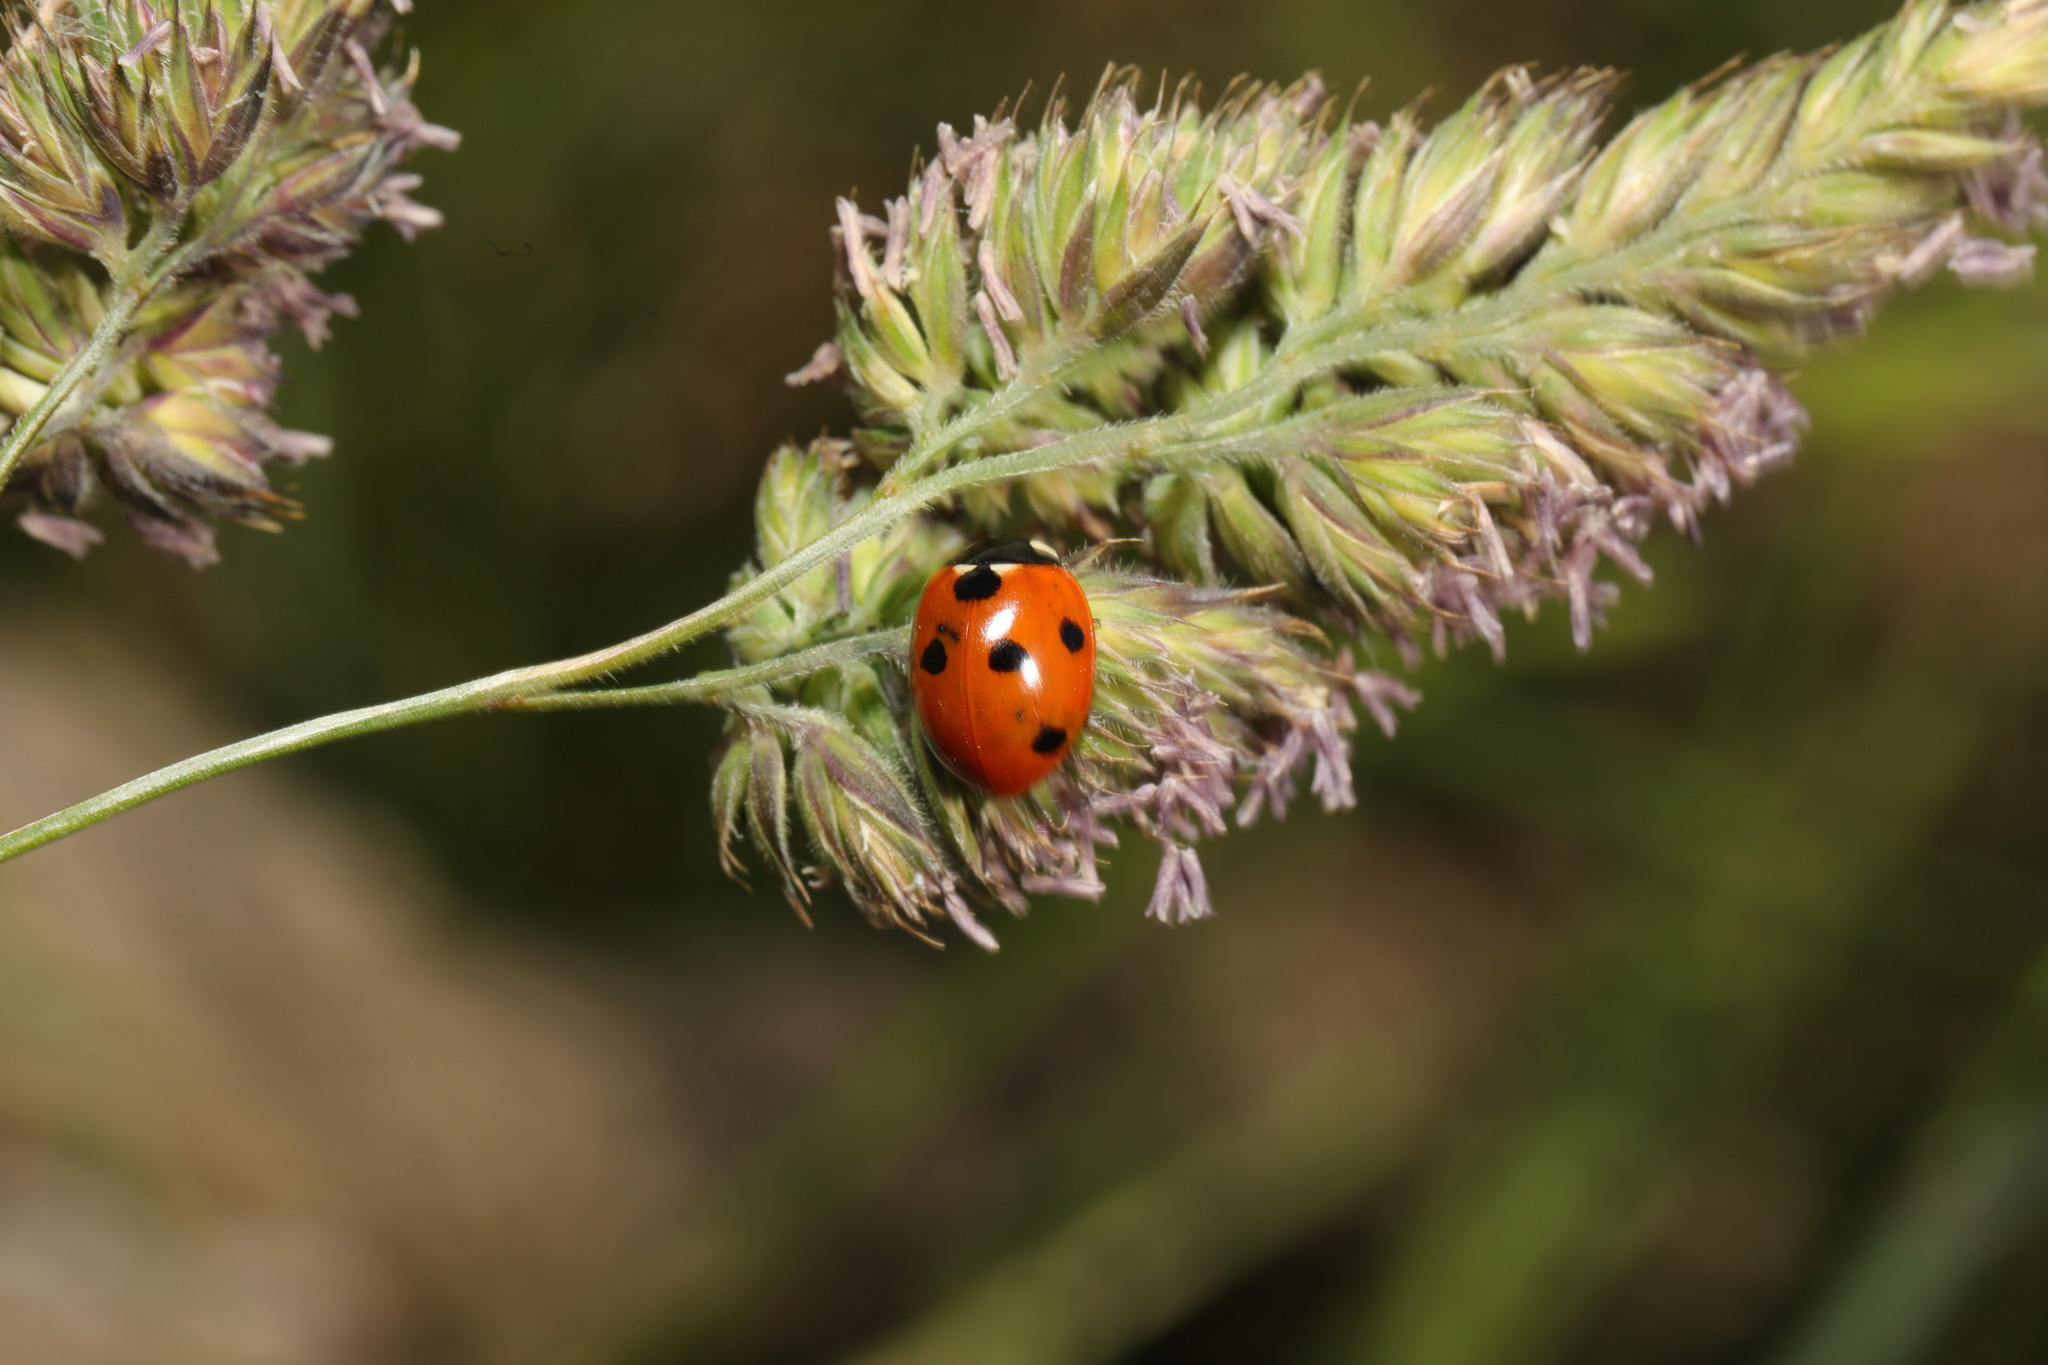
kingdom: Animalia
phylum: Arthropoda
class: Insecta
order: Coleoptera
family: Coccinellidae
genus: Coccinella
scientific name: Coccinella septempunctata
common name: Sevenspotted lady beetle
